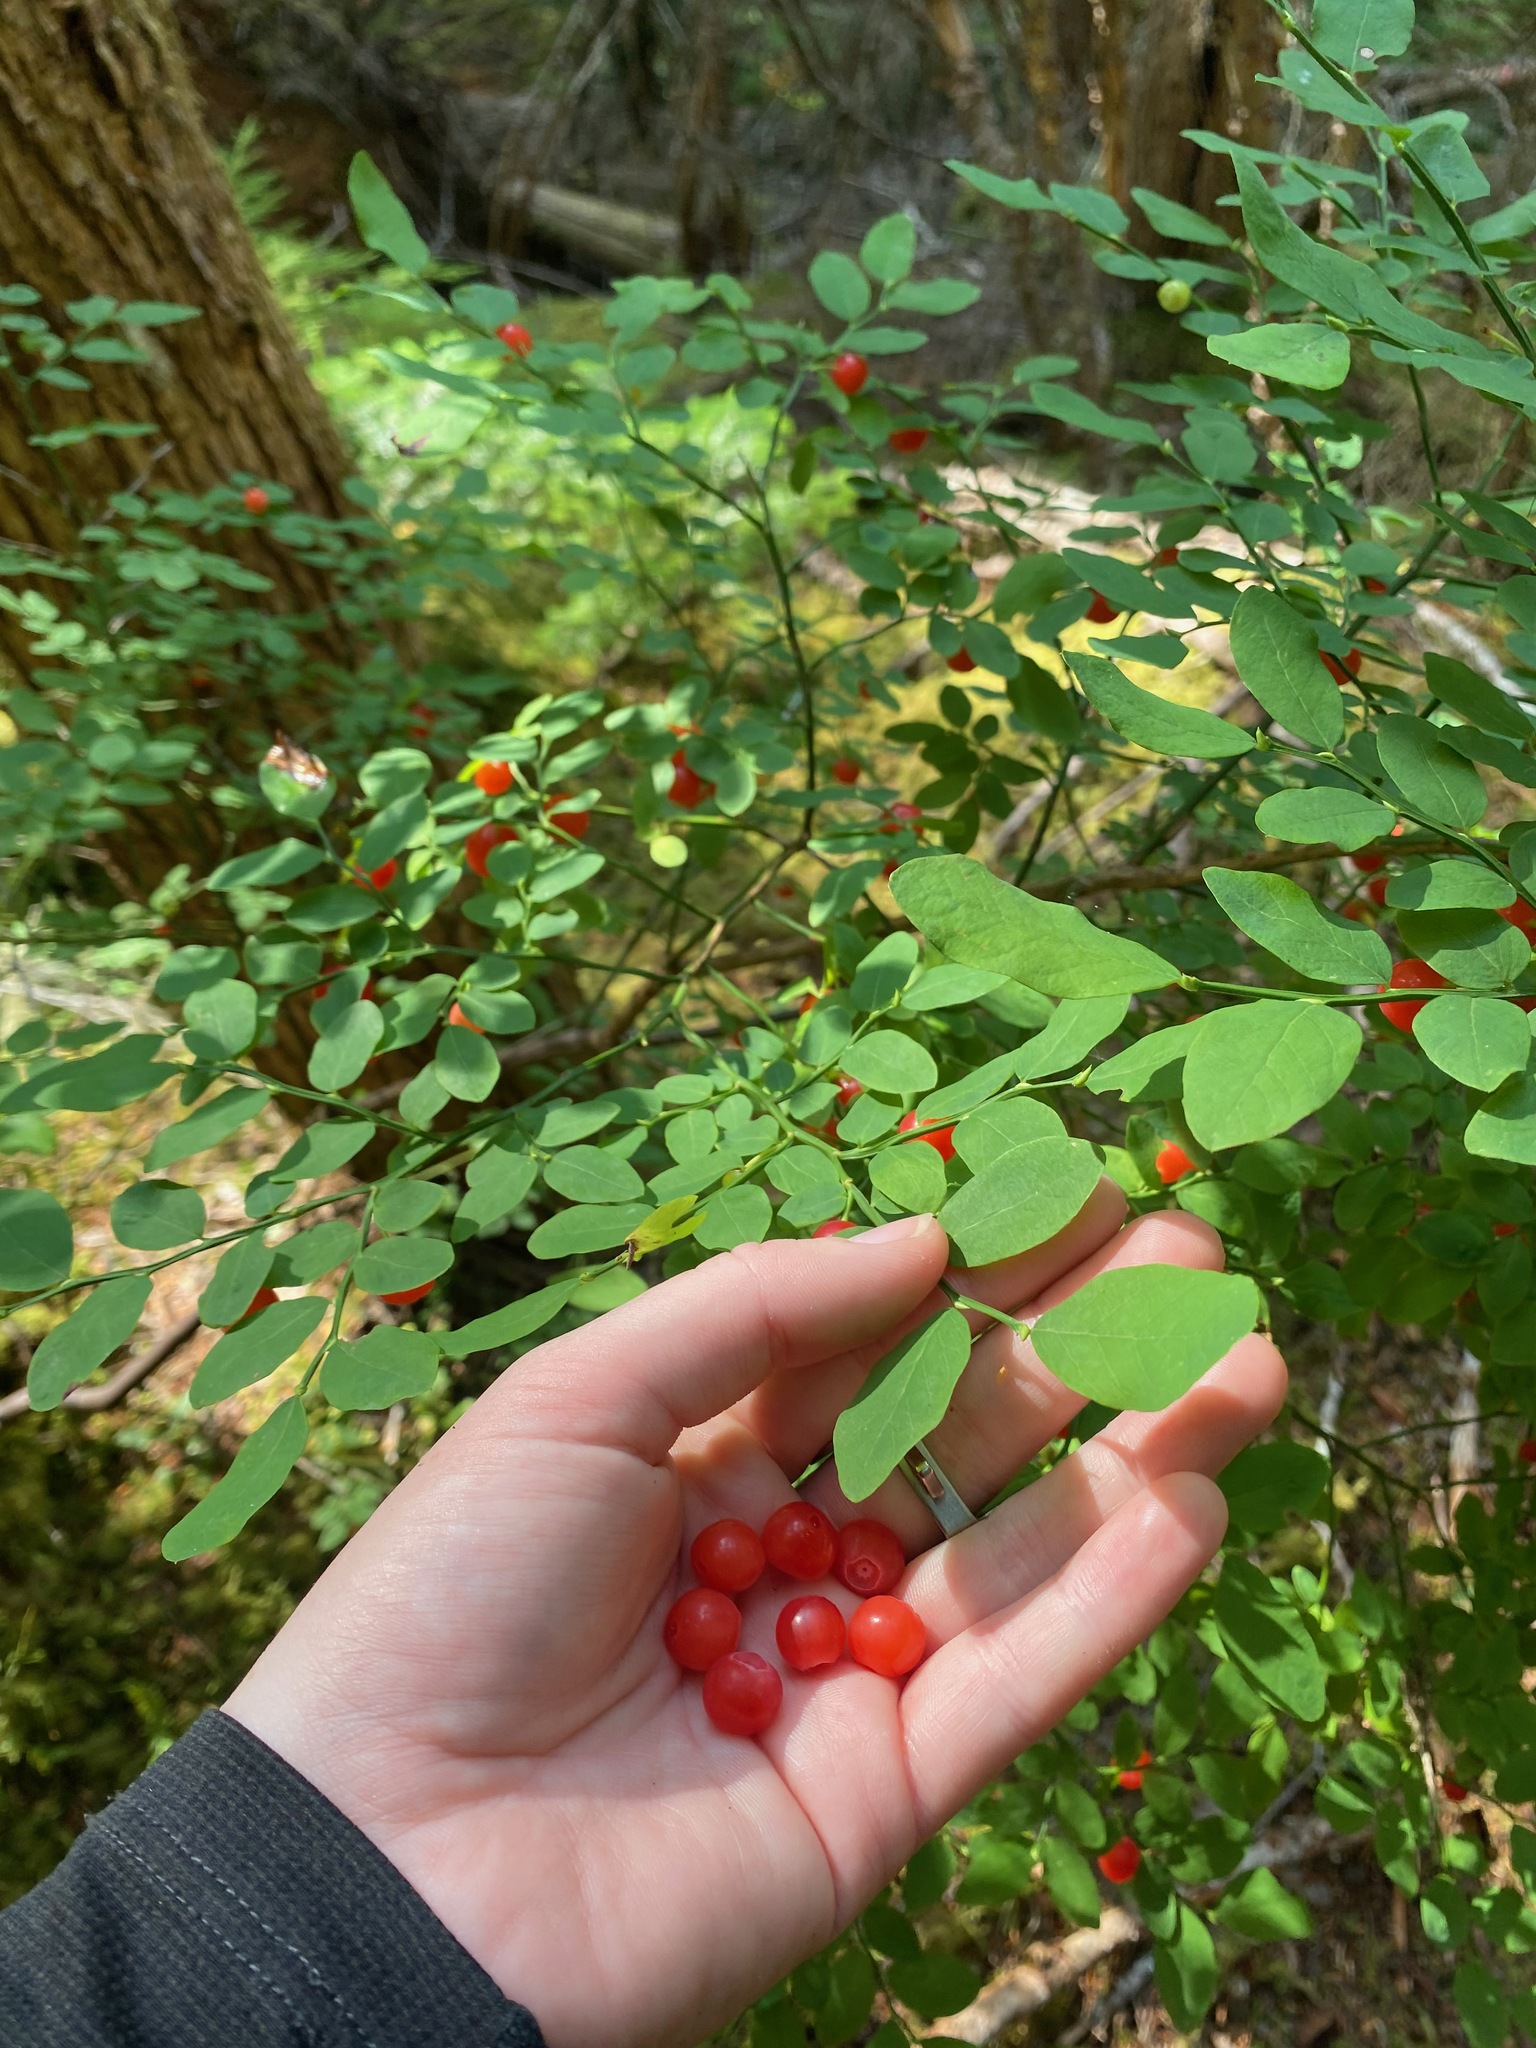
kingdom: Plantae
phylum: Tracheophyta
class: Magnoliopsida
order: Ericales
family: Ericaceae
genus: Vaccinium
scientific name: Vaccinium parvifolium
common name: Red-huckleberry
